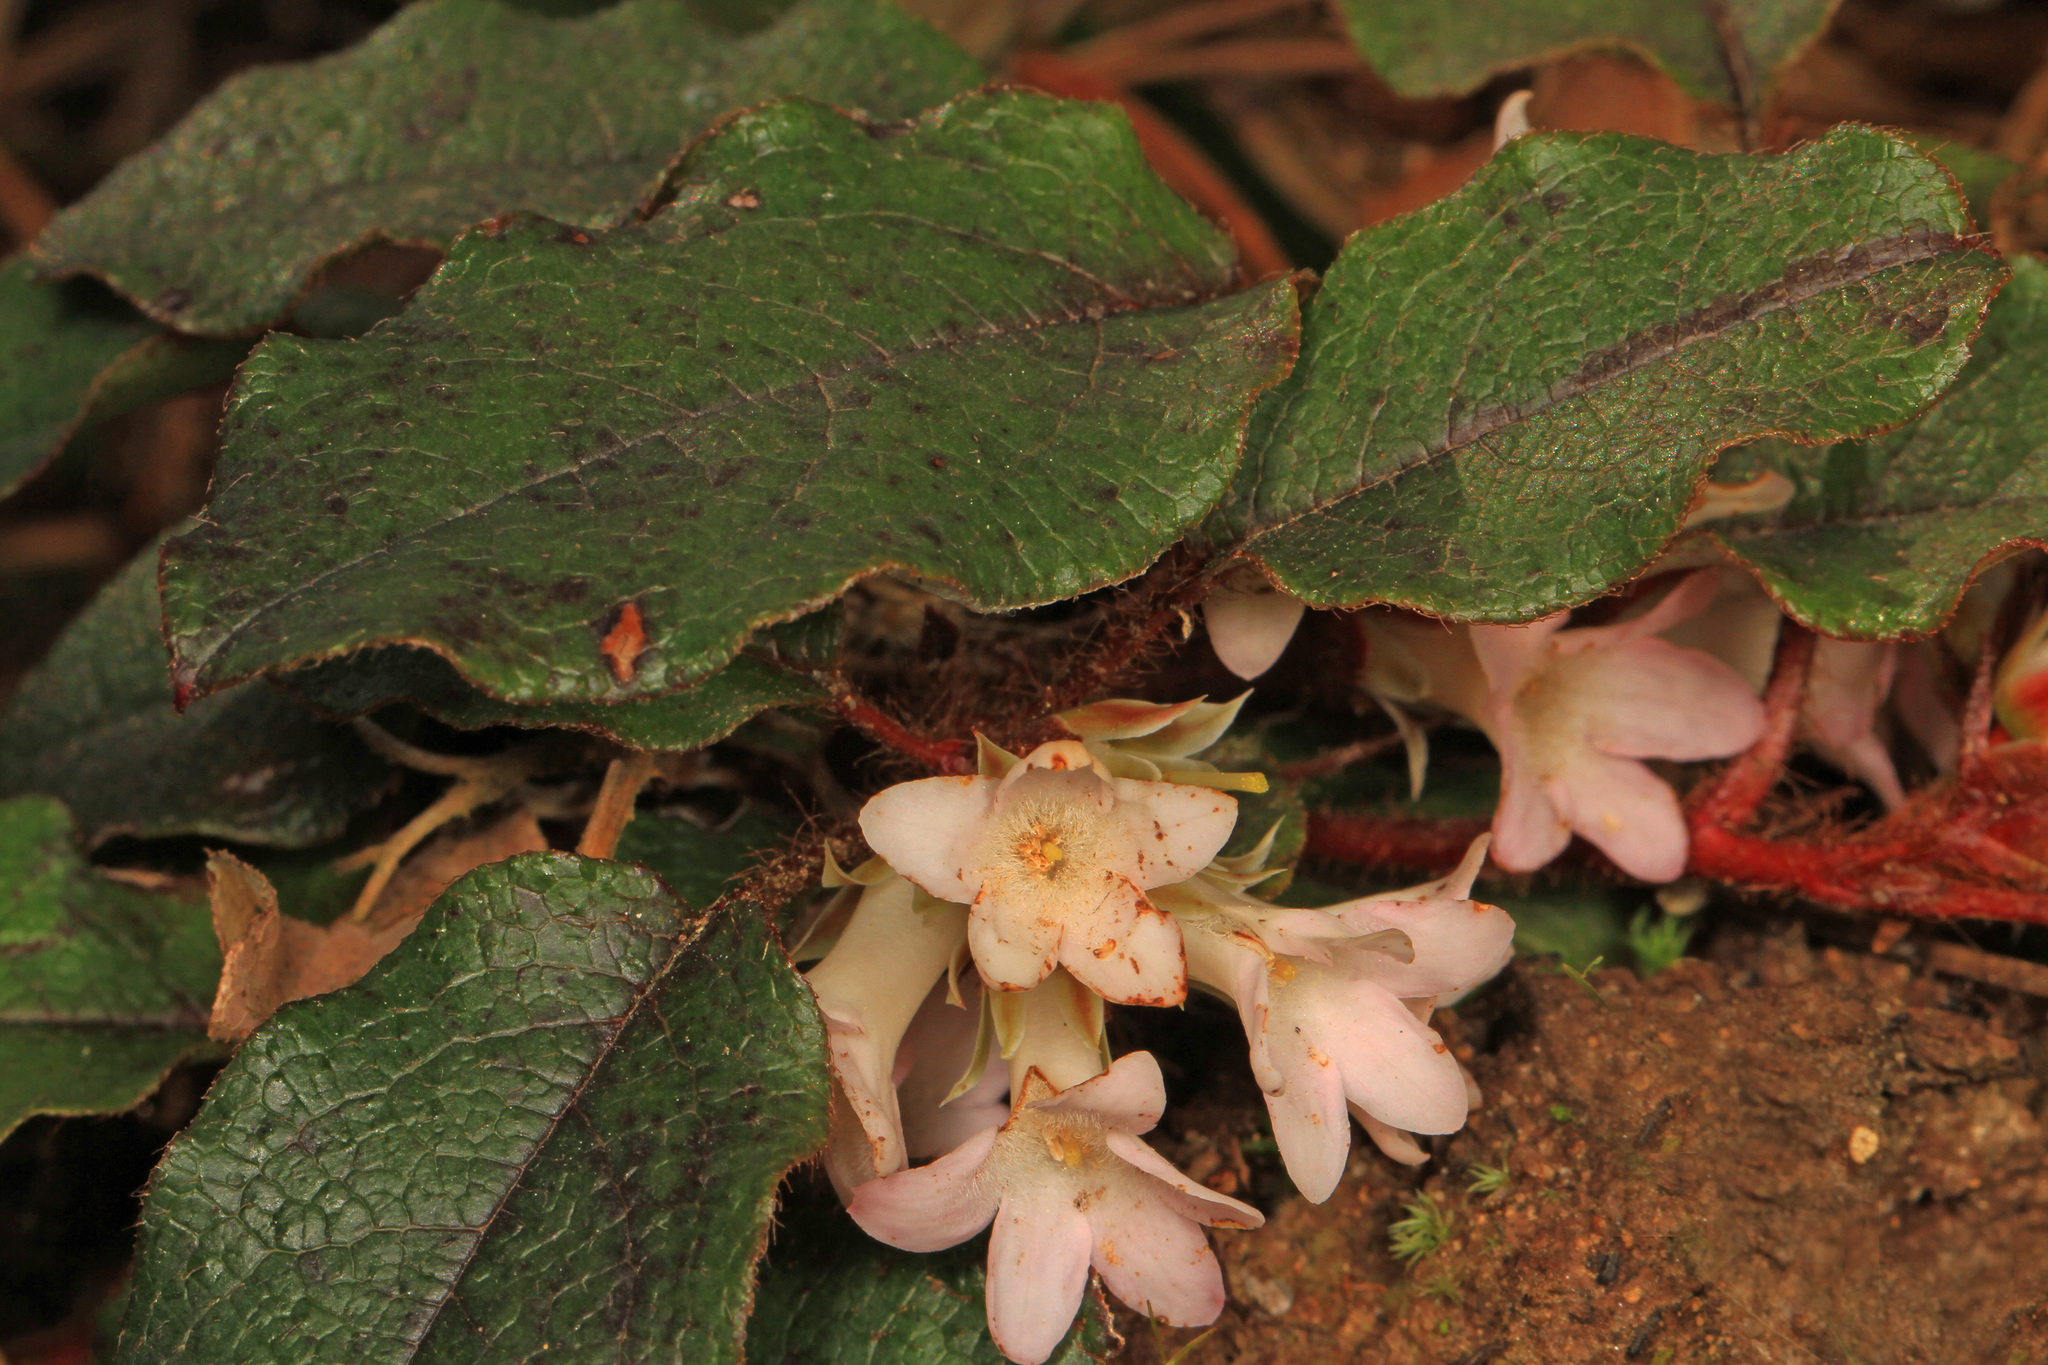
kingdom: Plantae
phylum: Tracheophyta
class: Magnoliopsida
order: Ericales
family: Ericaceae
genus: Epigaea
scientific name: Epigaea repens
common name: Gravelroot
